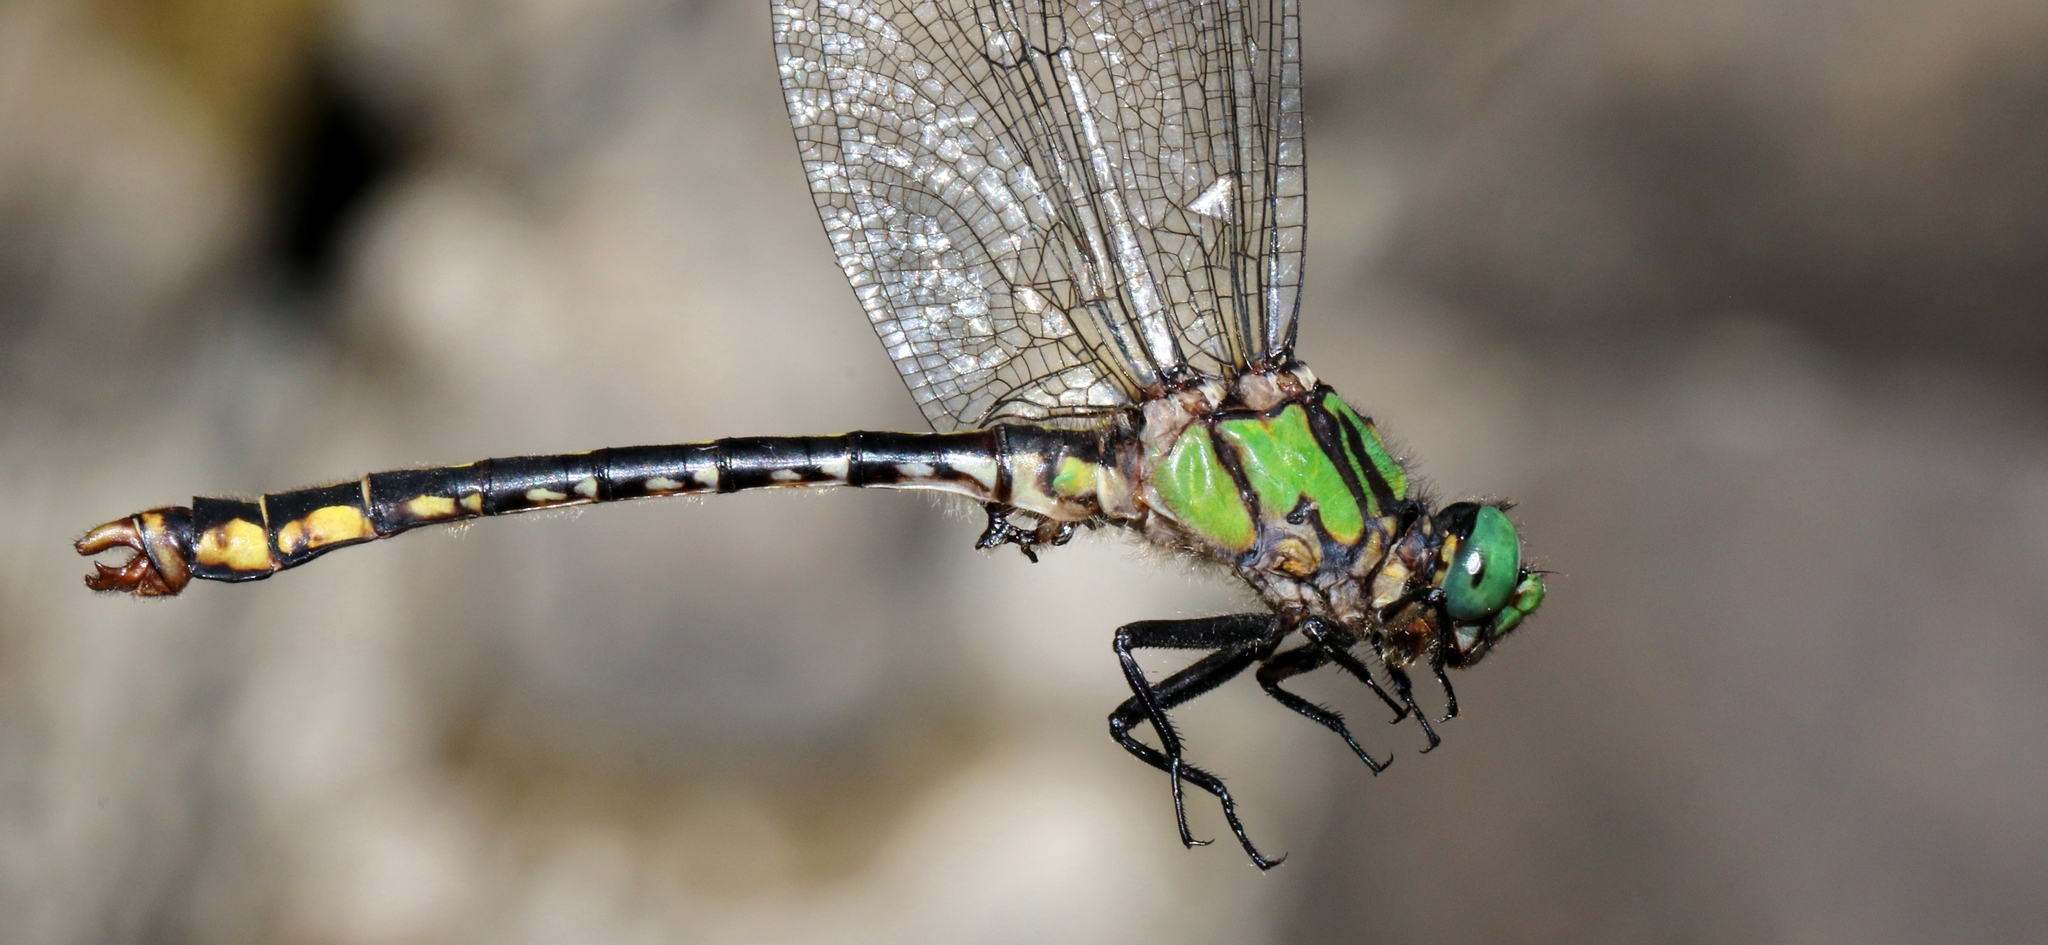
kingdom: Animalia
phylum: Arthropoda
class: Insecta
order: Odonata
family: Gomphidae
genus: Ophiogomphus
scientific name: Ophiogomphus mainensis
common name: Maine snaketail
